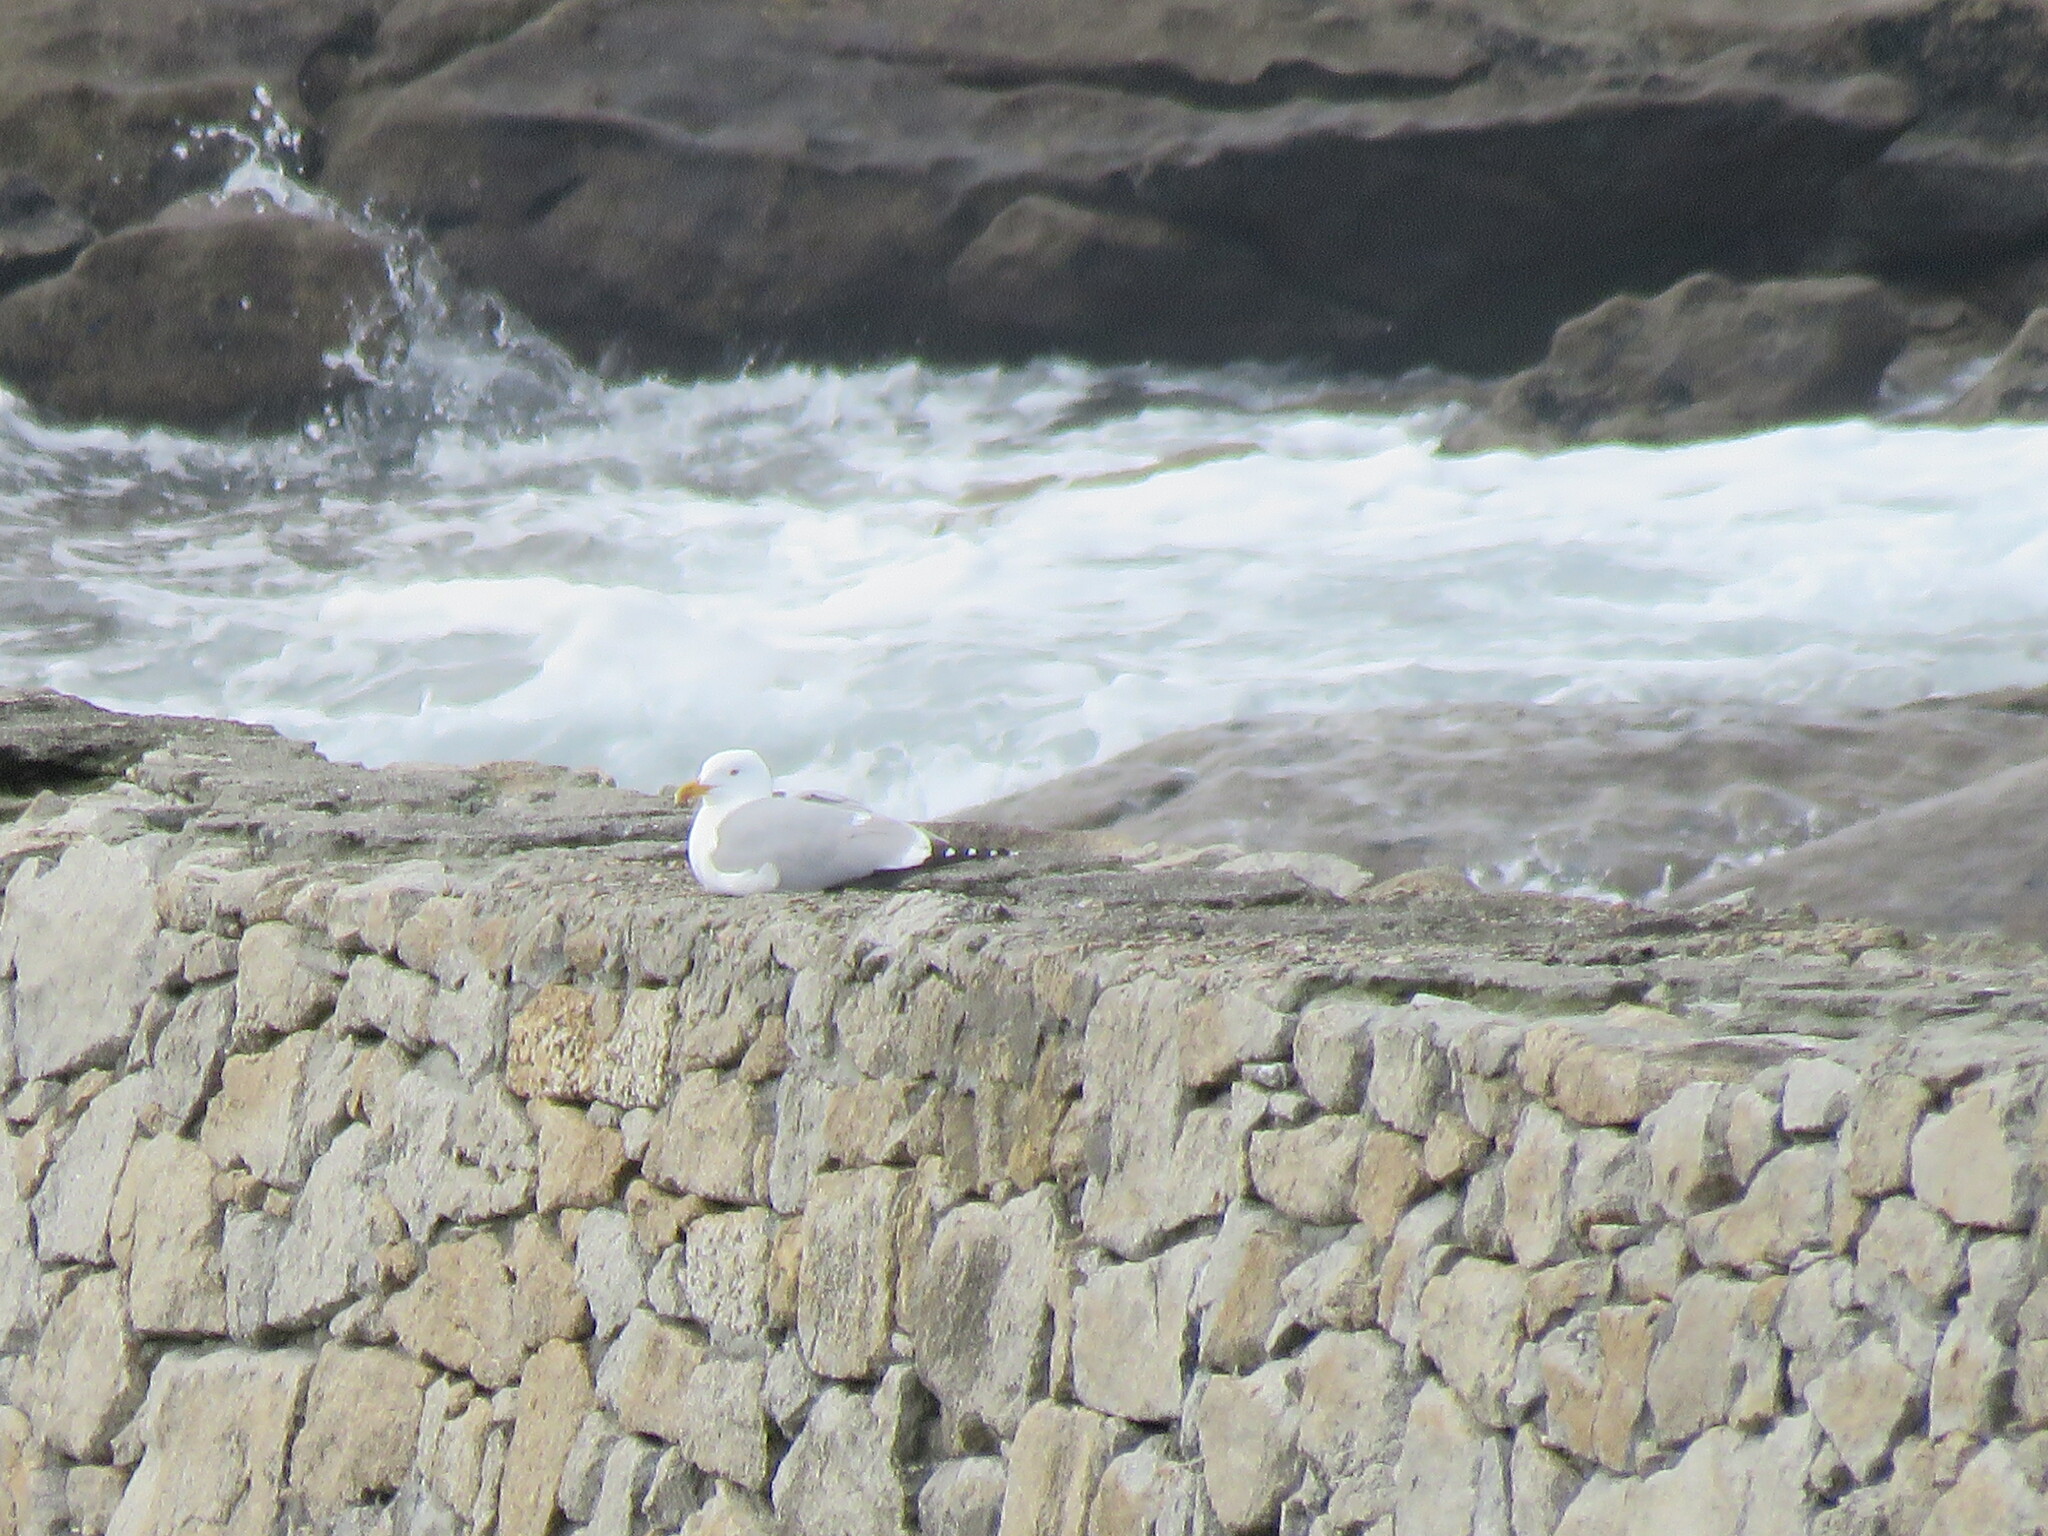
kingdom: Animalia
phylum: Chordata
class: Aves
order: Charadriiformes
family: Laridae
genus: Larus
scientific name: Larus michahellis
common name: Yellow-legged gull
